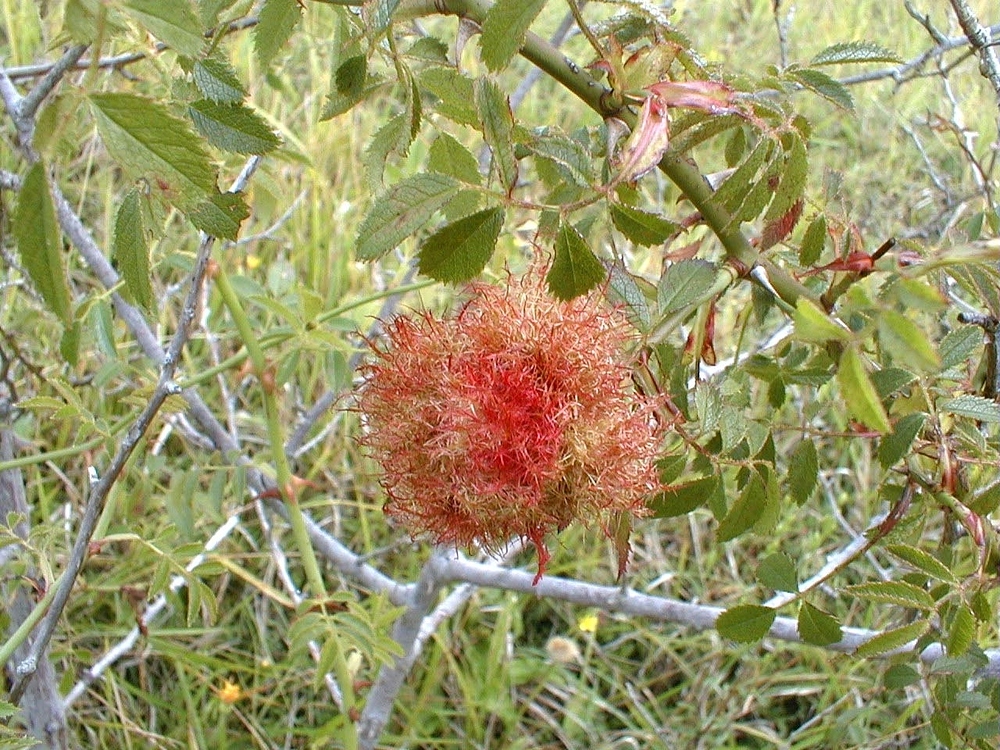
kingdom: Animalia
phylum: Arthropoda
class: Insecta
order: Hymenoptera
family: Cynipidae
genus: Diplolepis
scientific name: Diplolepis rosae
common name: Bedeguar gall
